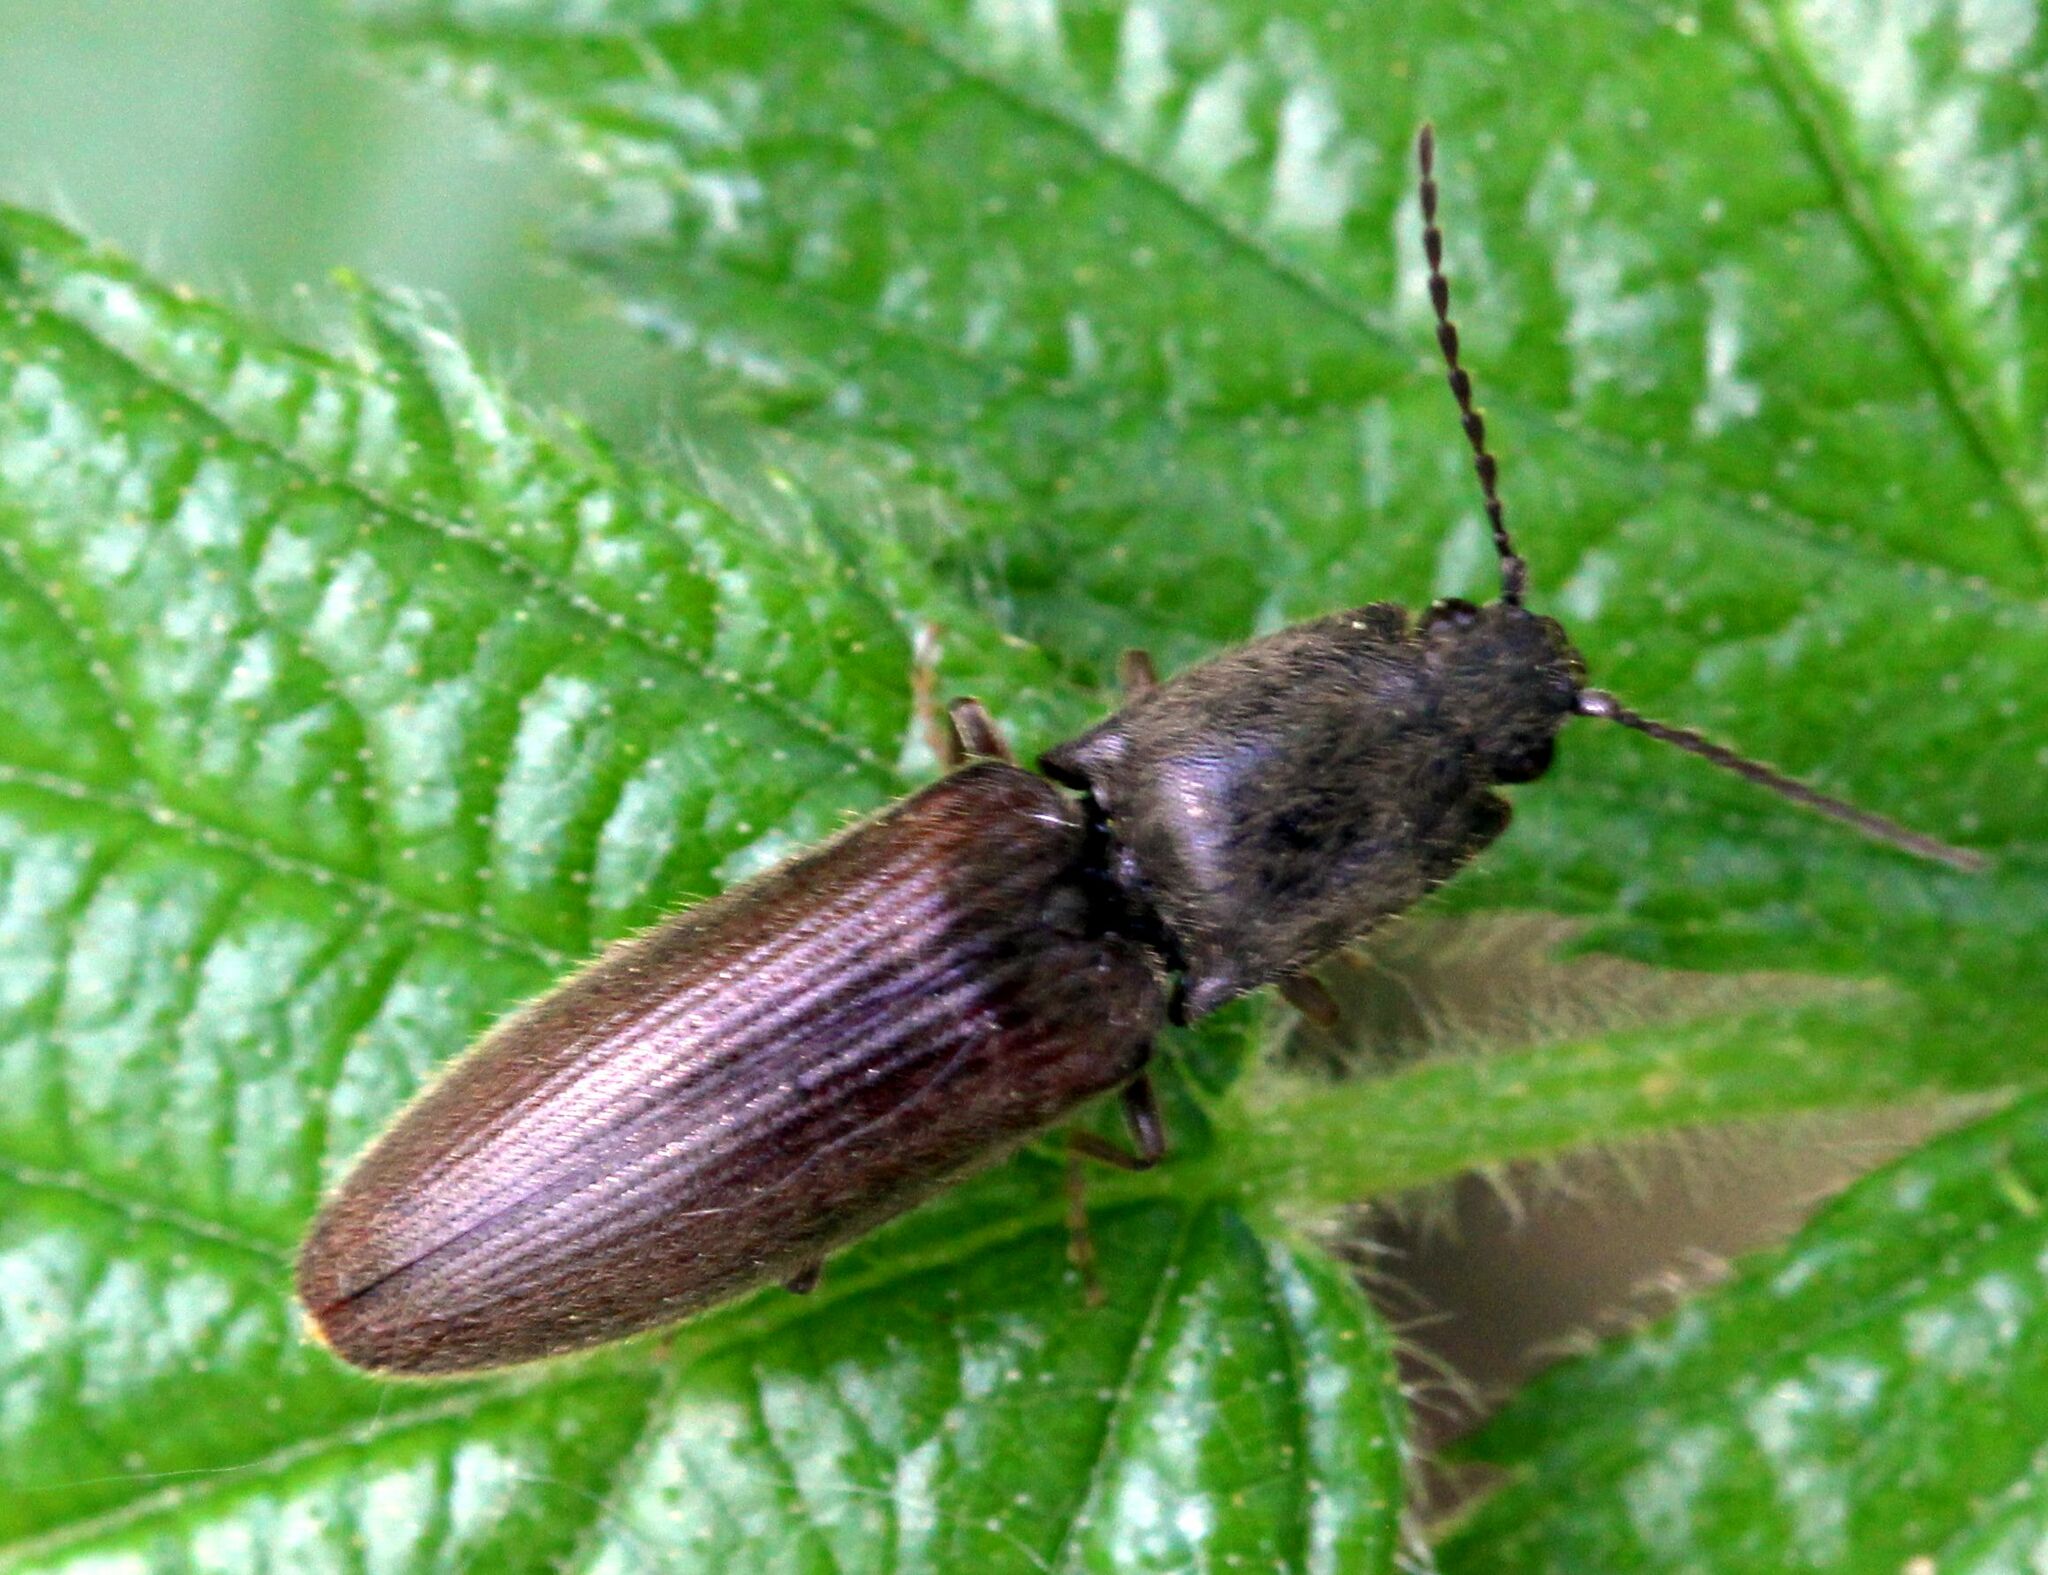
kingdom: Animalia
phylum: Arthropoda
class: Insecta
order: Coleoptera
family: Elateridae
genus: Athous
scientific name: Athous haemorrhoidalis
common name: Red-brown click beetle
